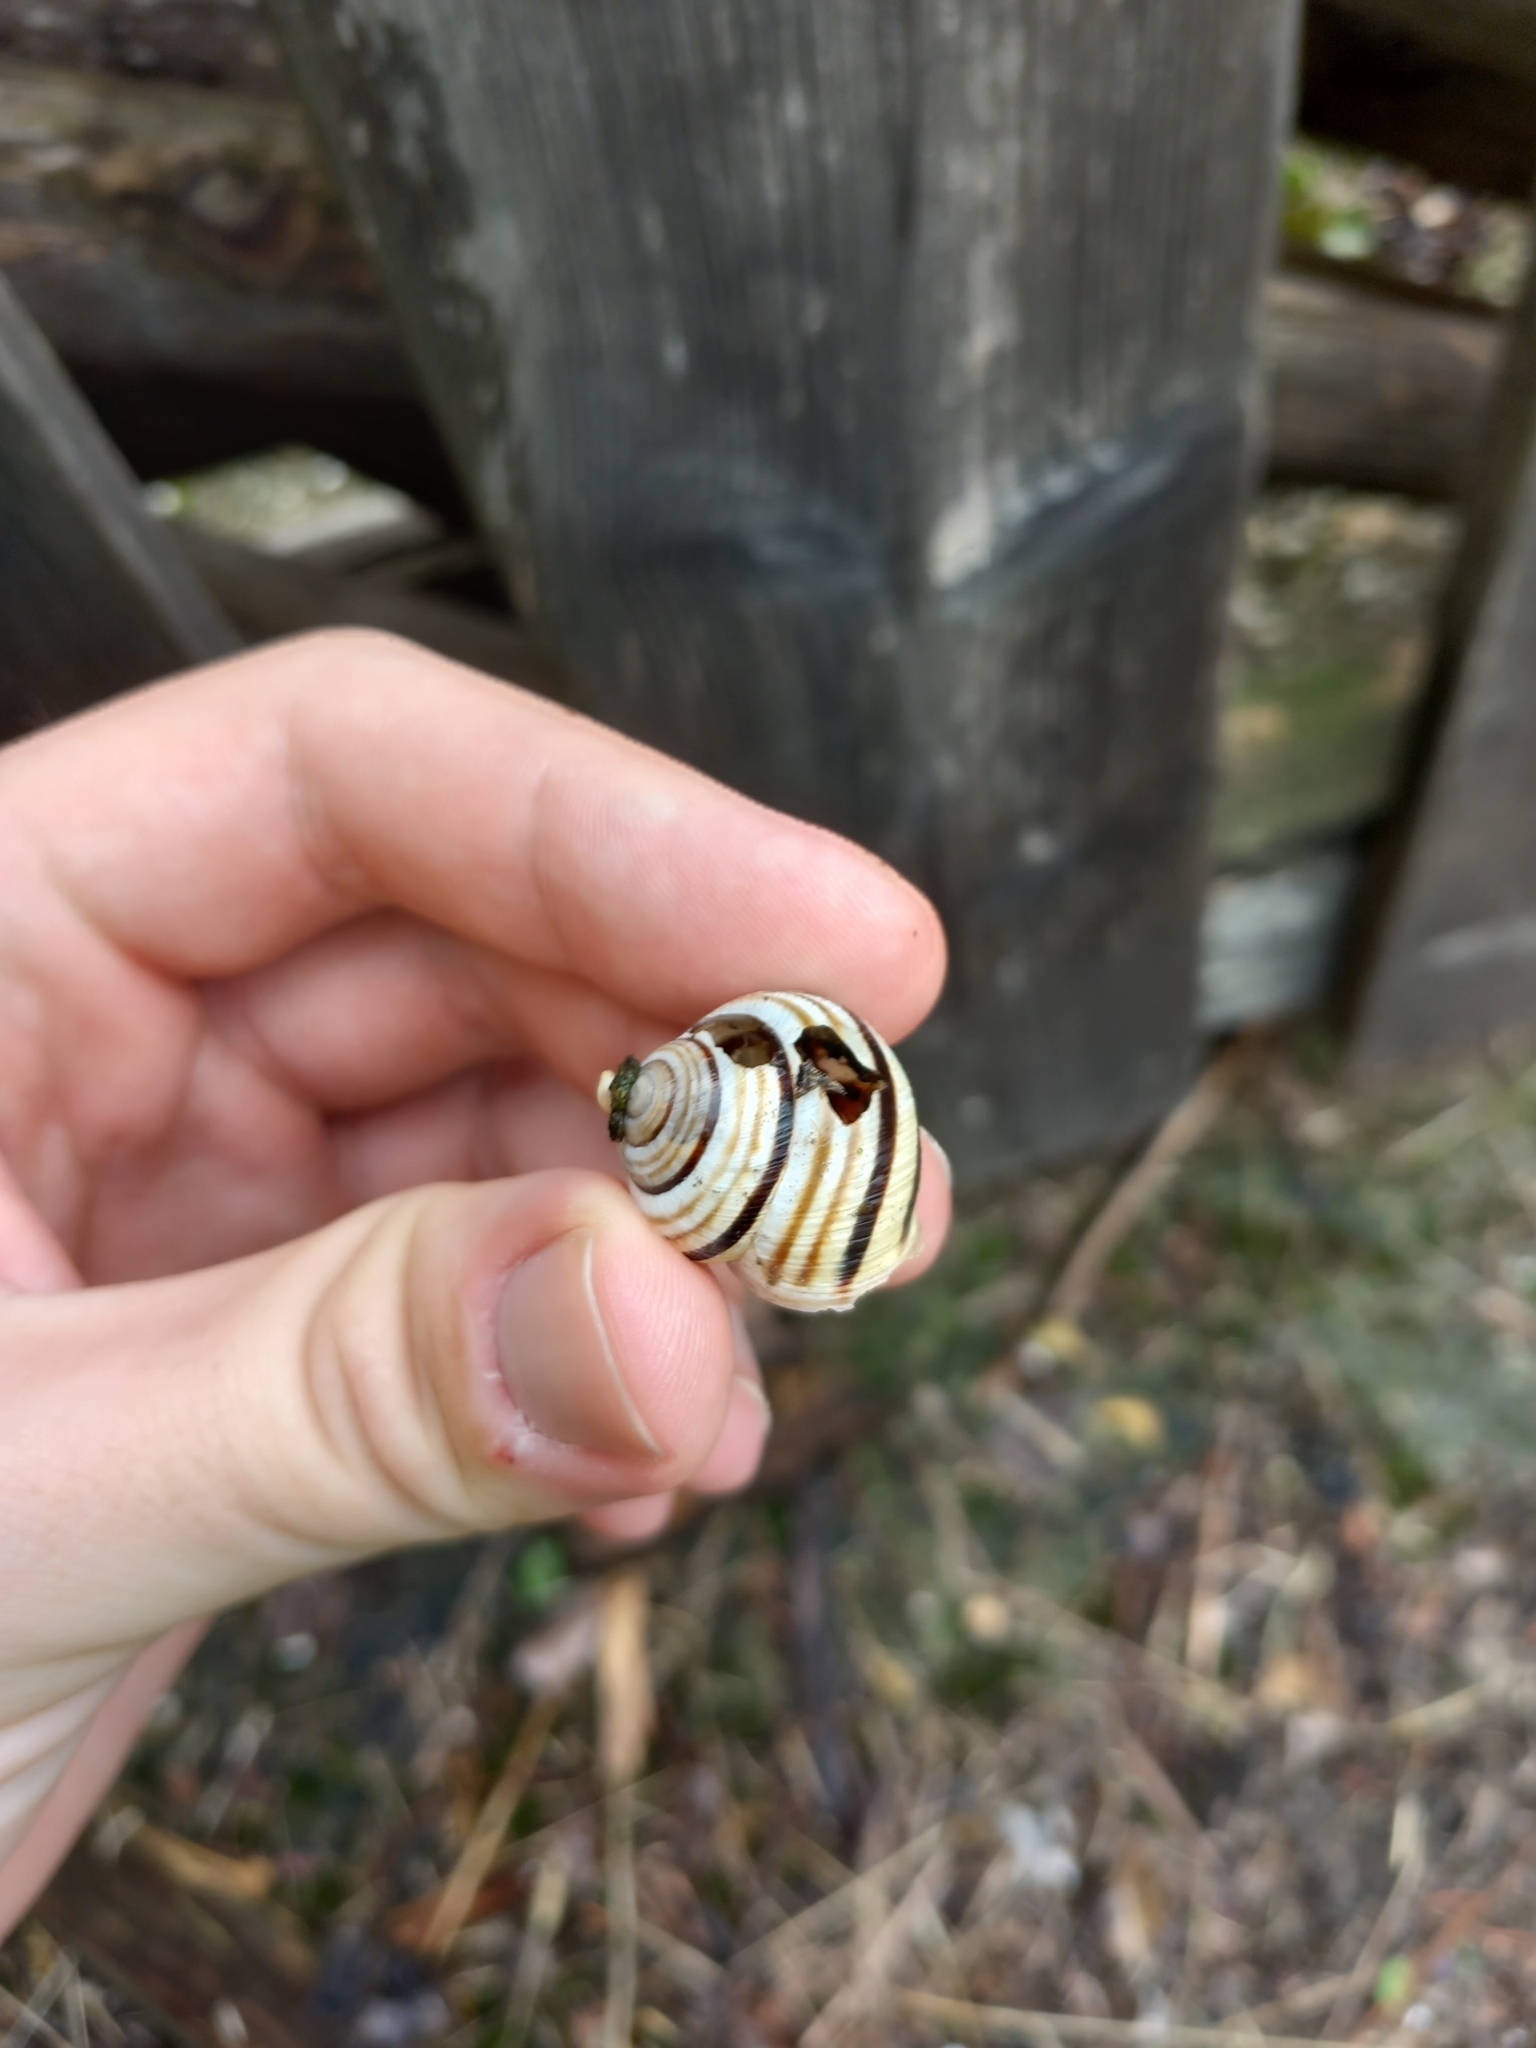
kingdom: Animalia
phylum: Mollusca
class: Gastropoda
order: Stylommatophora
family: Helicidae
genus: Caucasotachea
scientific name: Caucasotachea vindobonensis
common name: European helicid land snail
